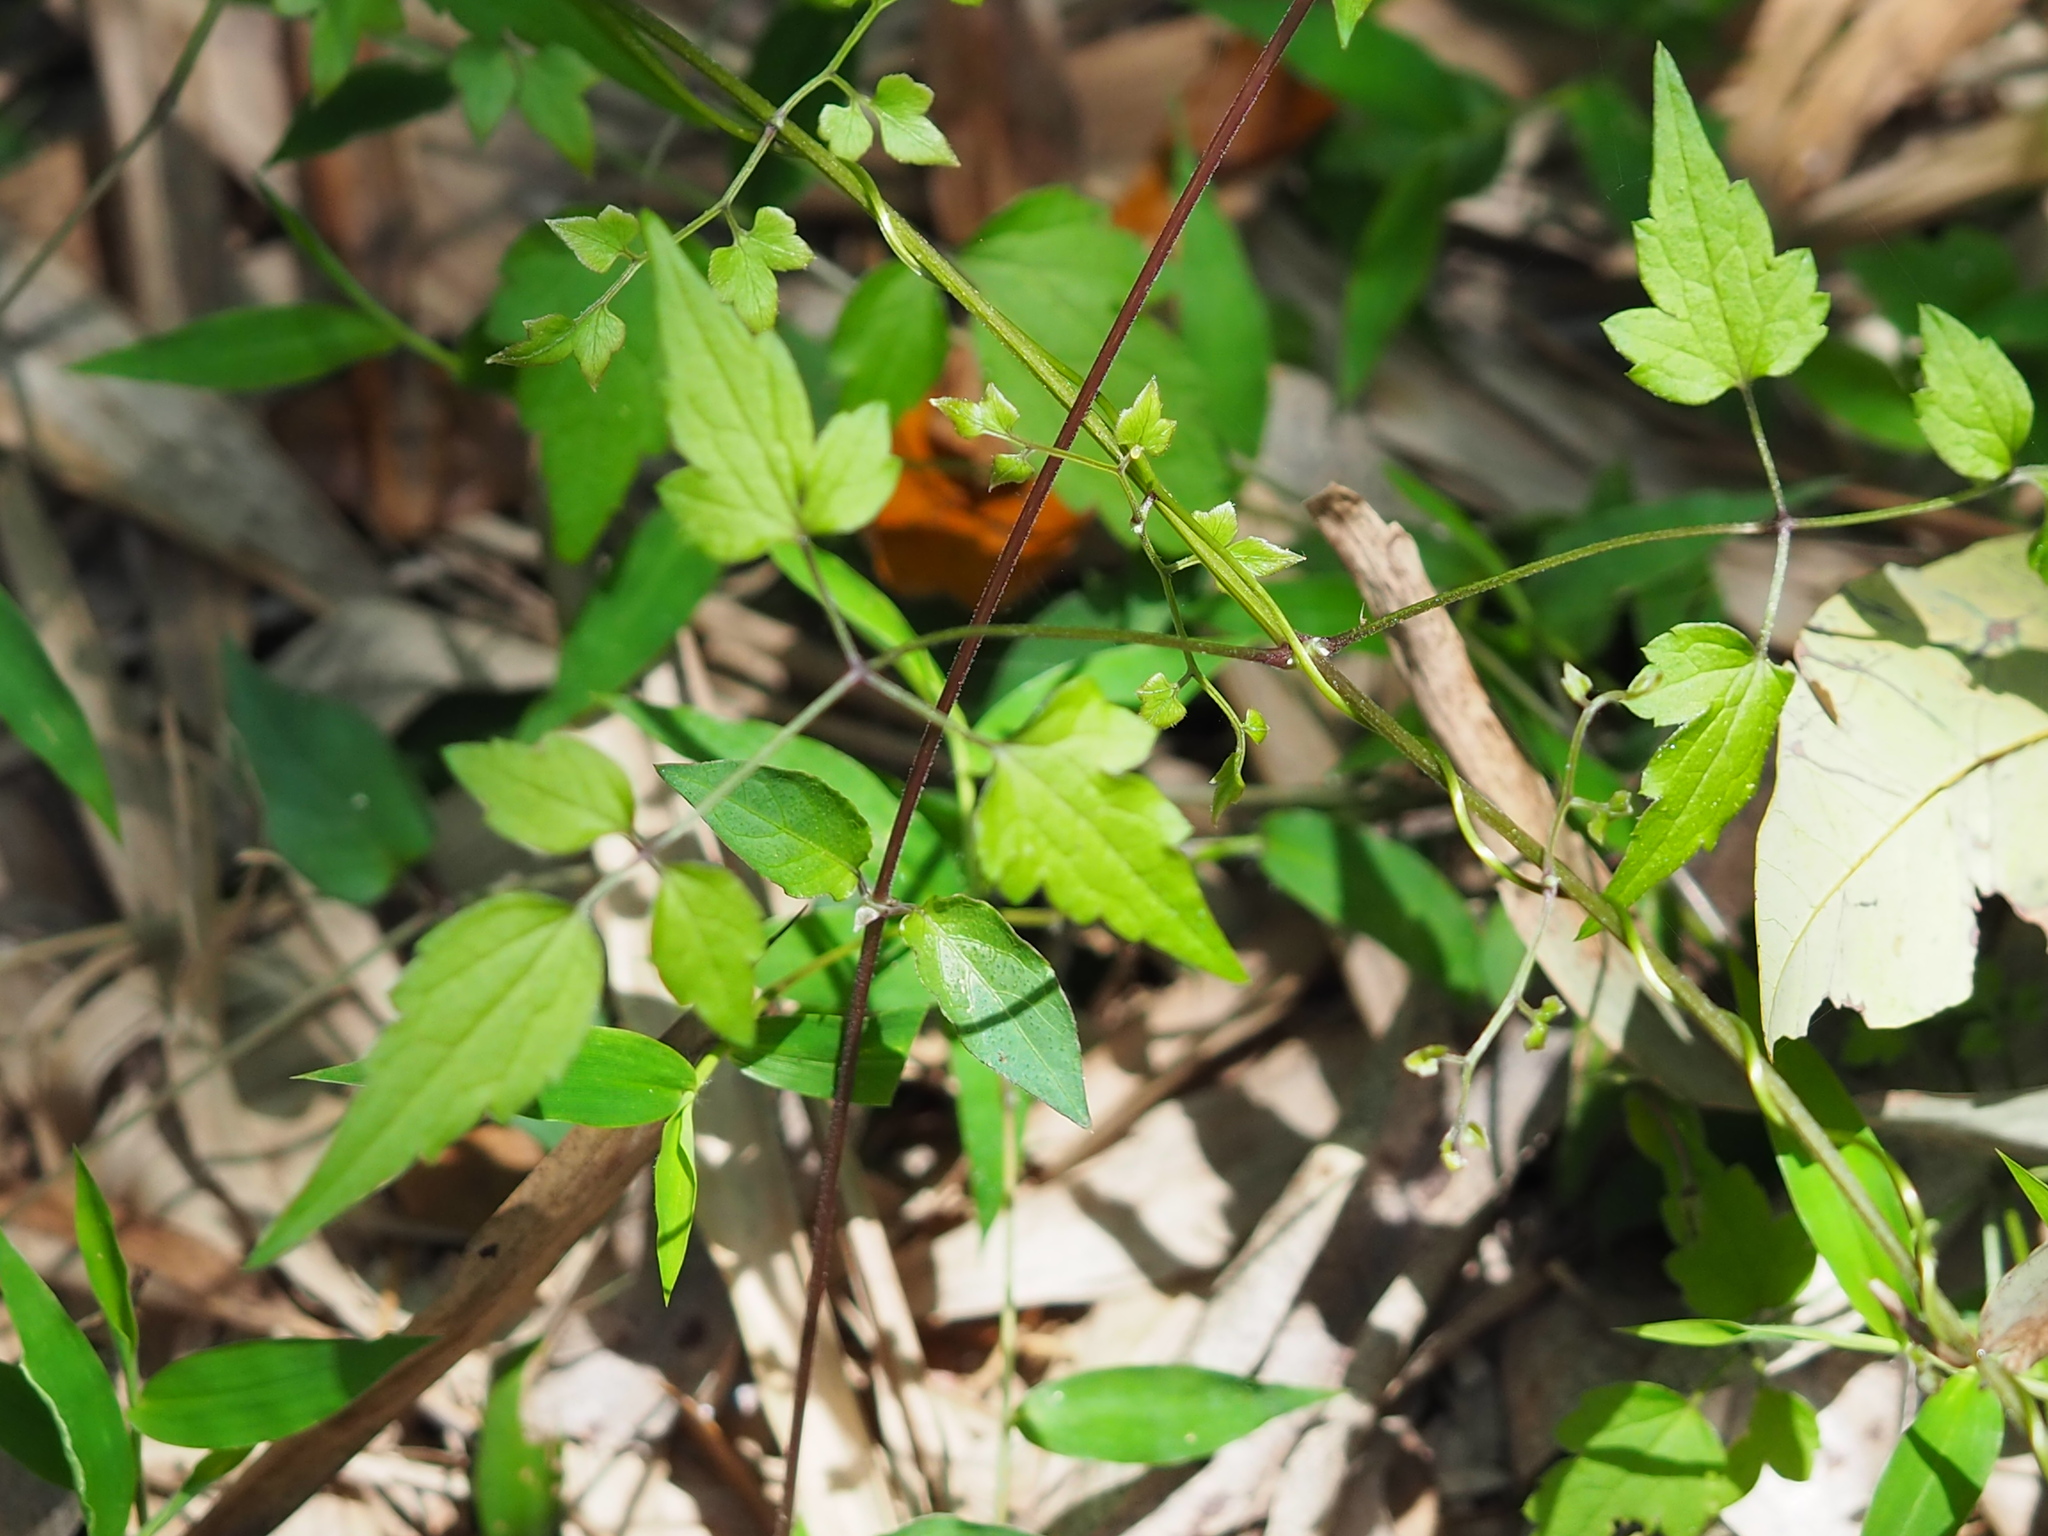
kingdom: Plantae
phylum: Tracheophyta
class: Magnoliopsida
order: Ranunculales
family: Ranunculaceae
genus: Clematis
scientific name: Clematis grata
